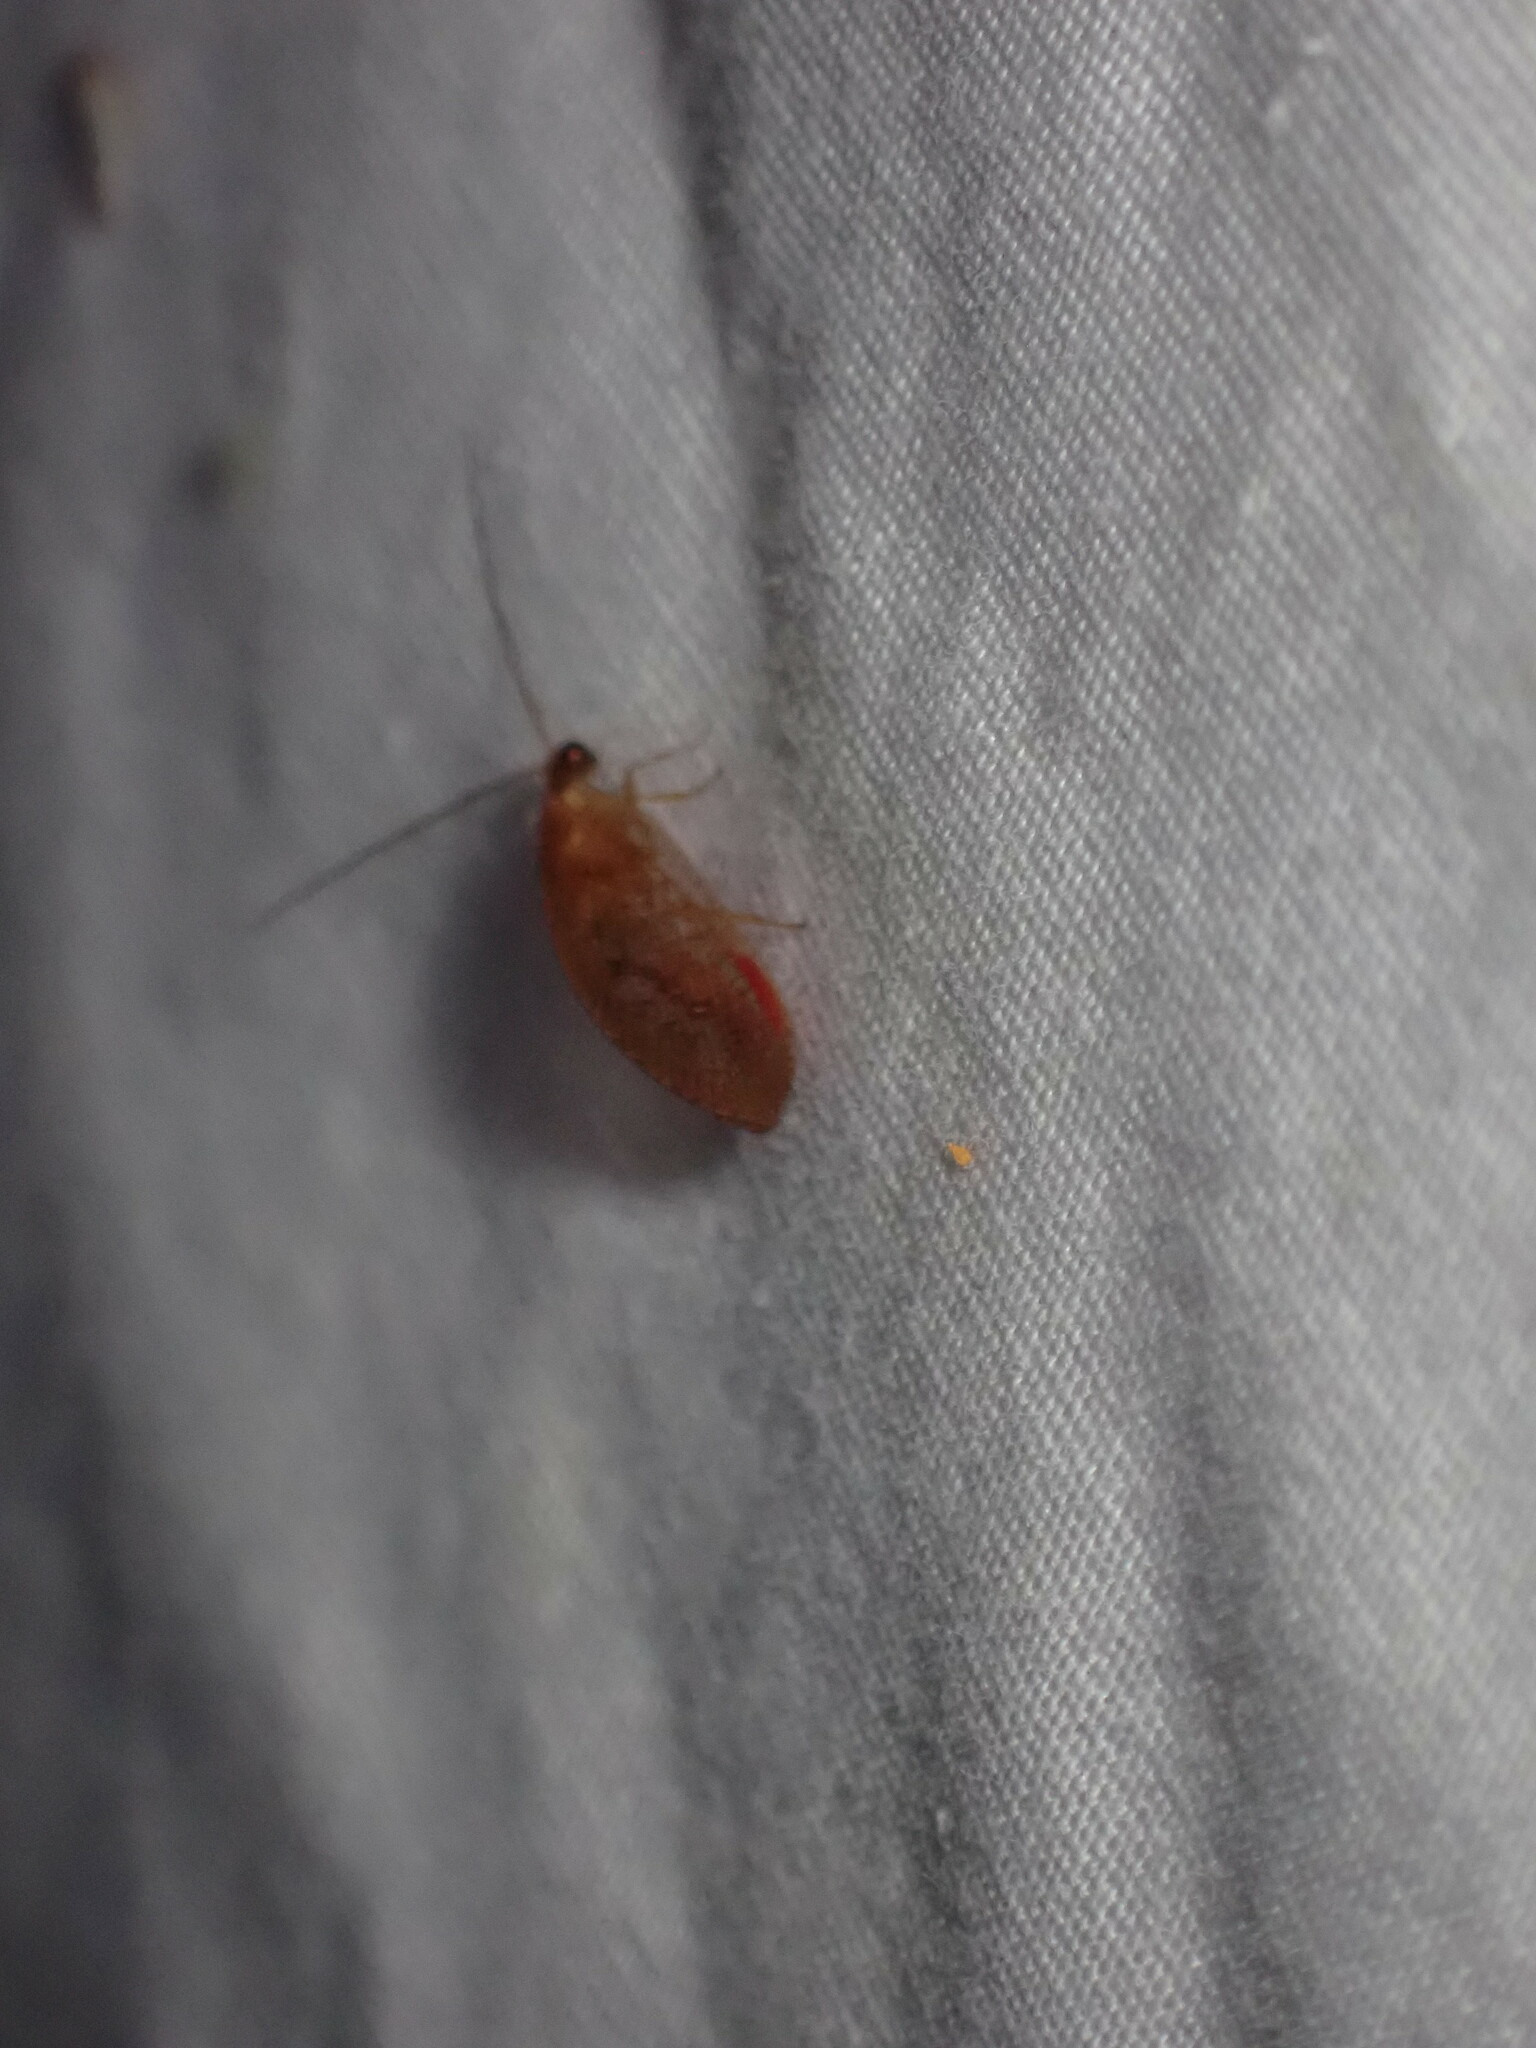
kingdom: Animalia
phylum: Arthropoda
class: Insecta
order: Neuroptera
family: Hemerobiidae
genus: Hemerobius
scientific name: Hemerobius stigma
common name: Brown pine lacewing
